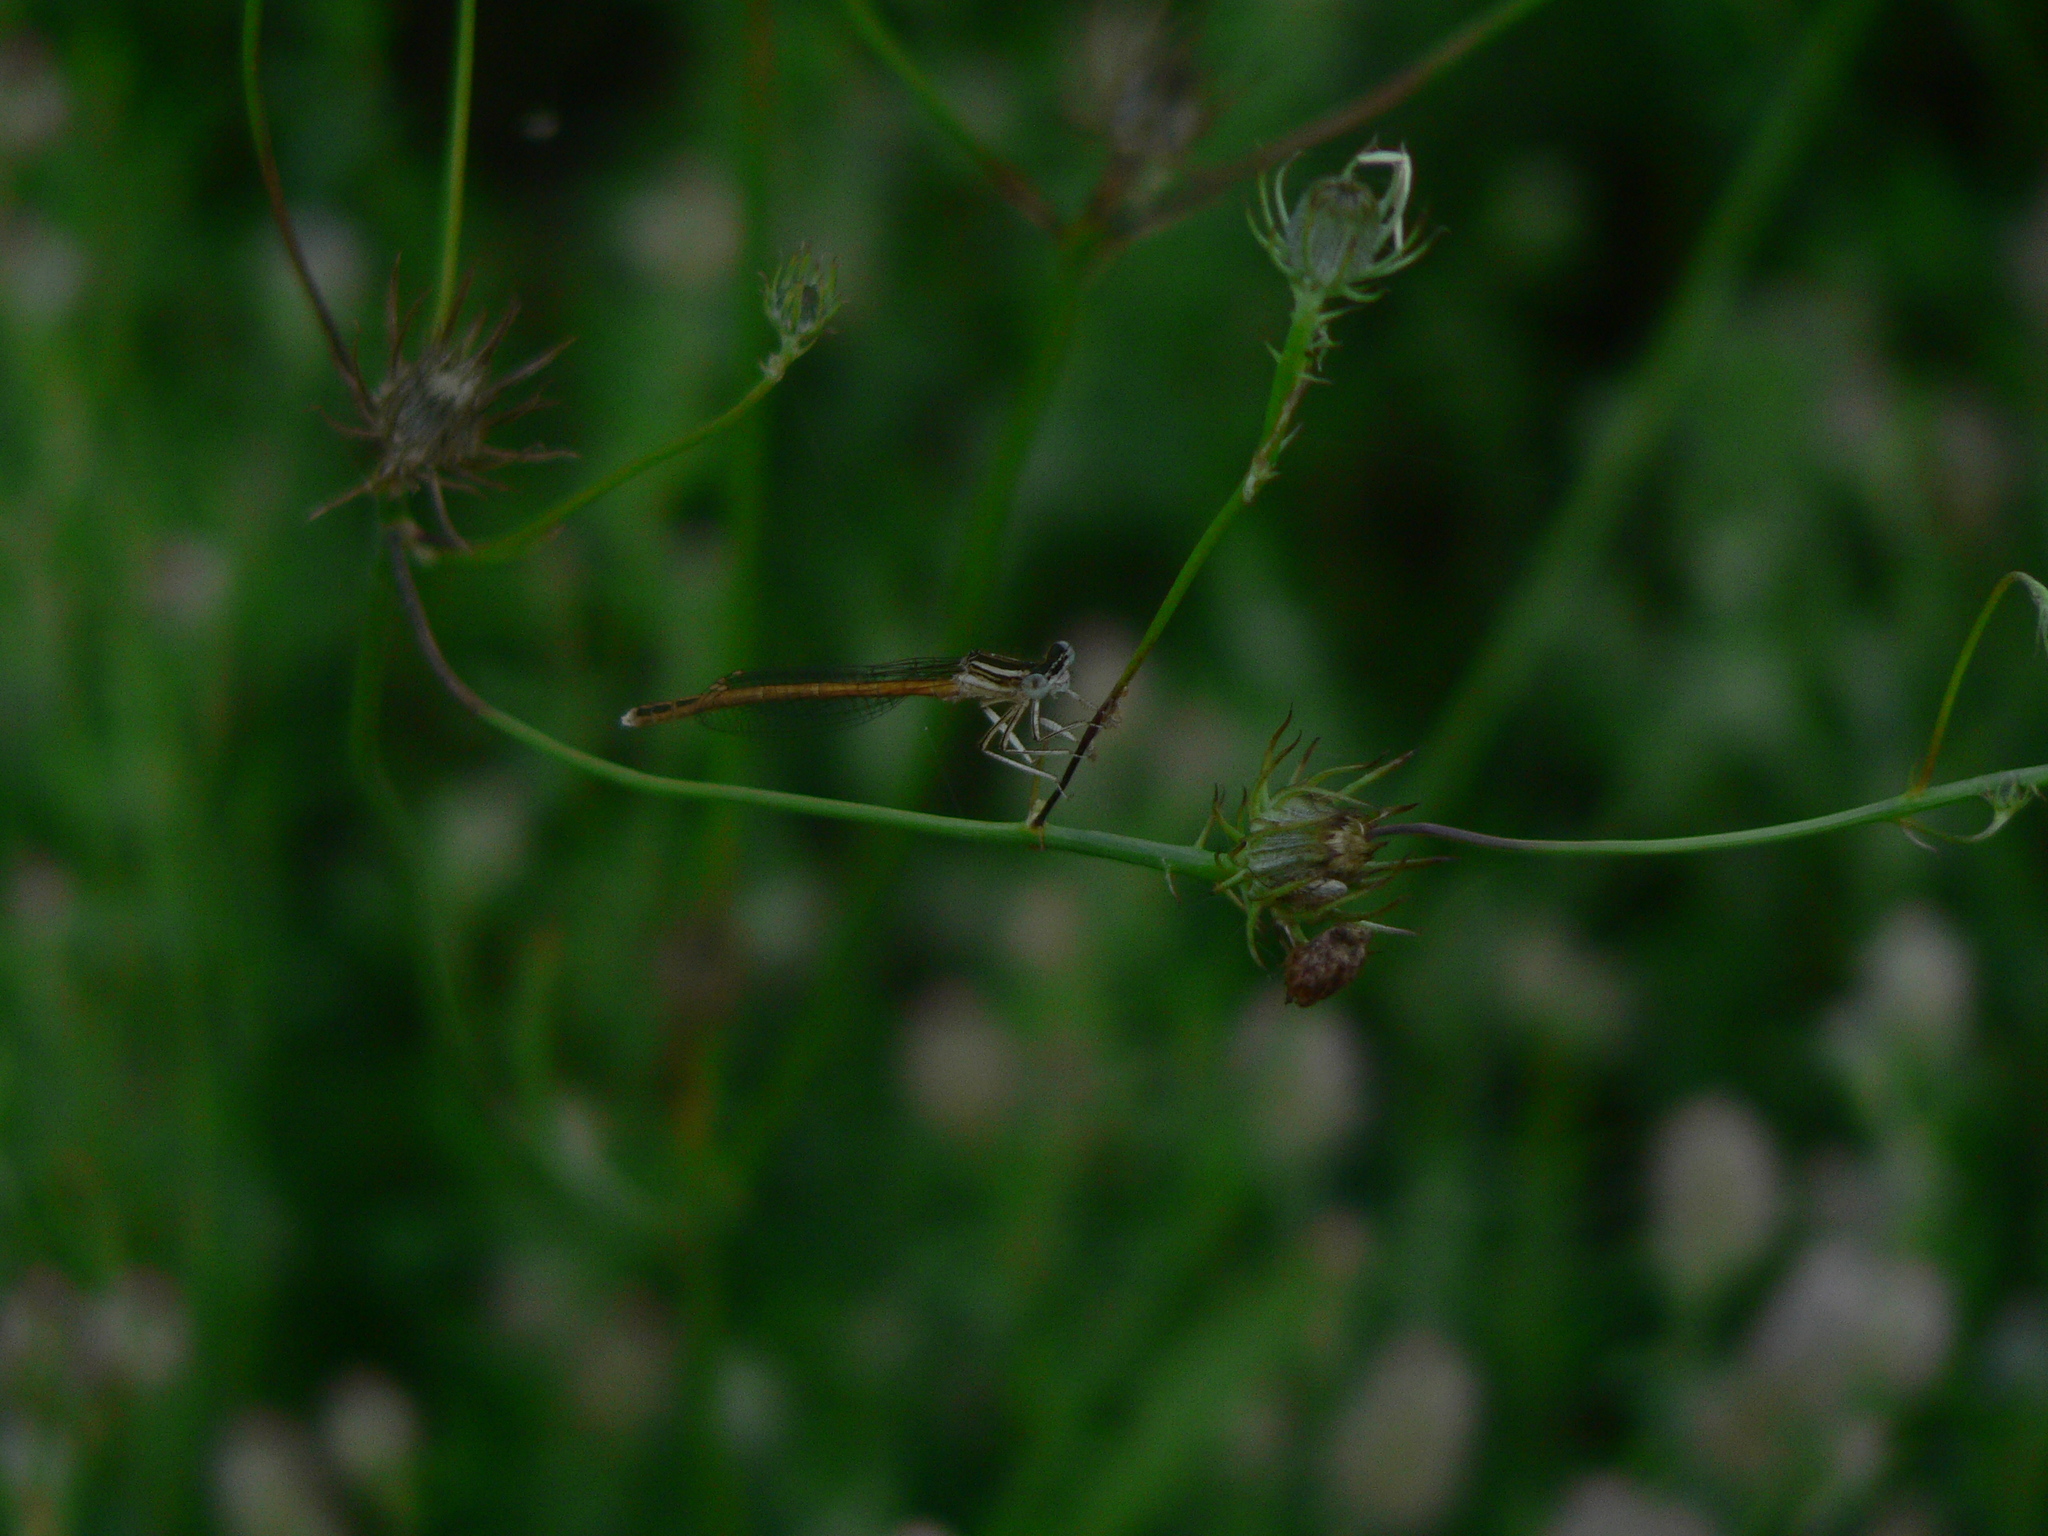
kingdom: Animalia
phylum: Arthropoda
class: Insecta
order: Odonata
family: Platycnemididae
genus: Platycnemis
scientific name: Platycnemis acutipennis
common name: Orange featherleg
